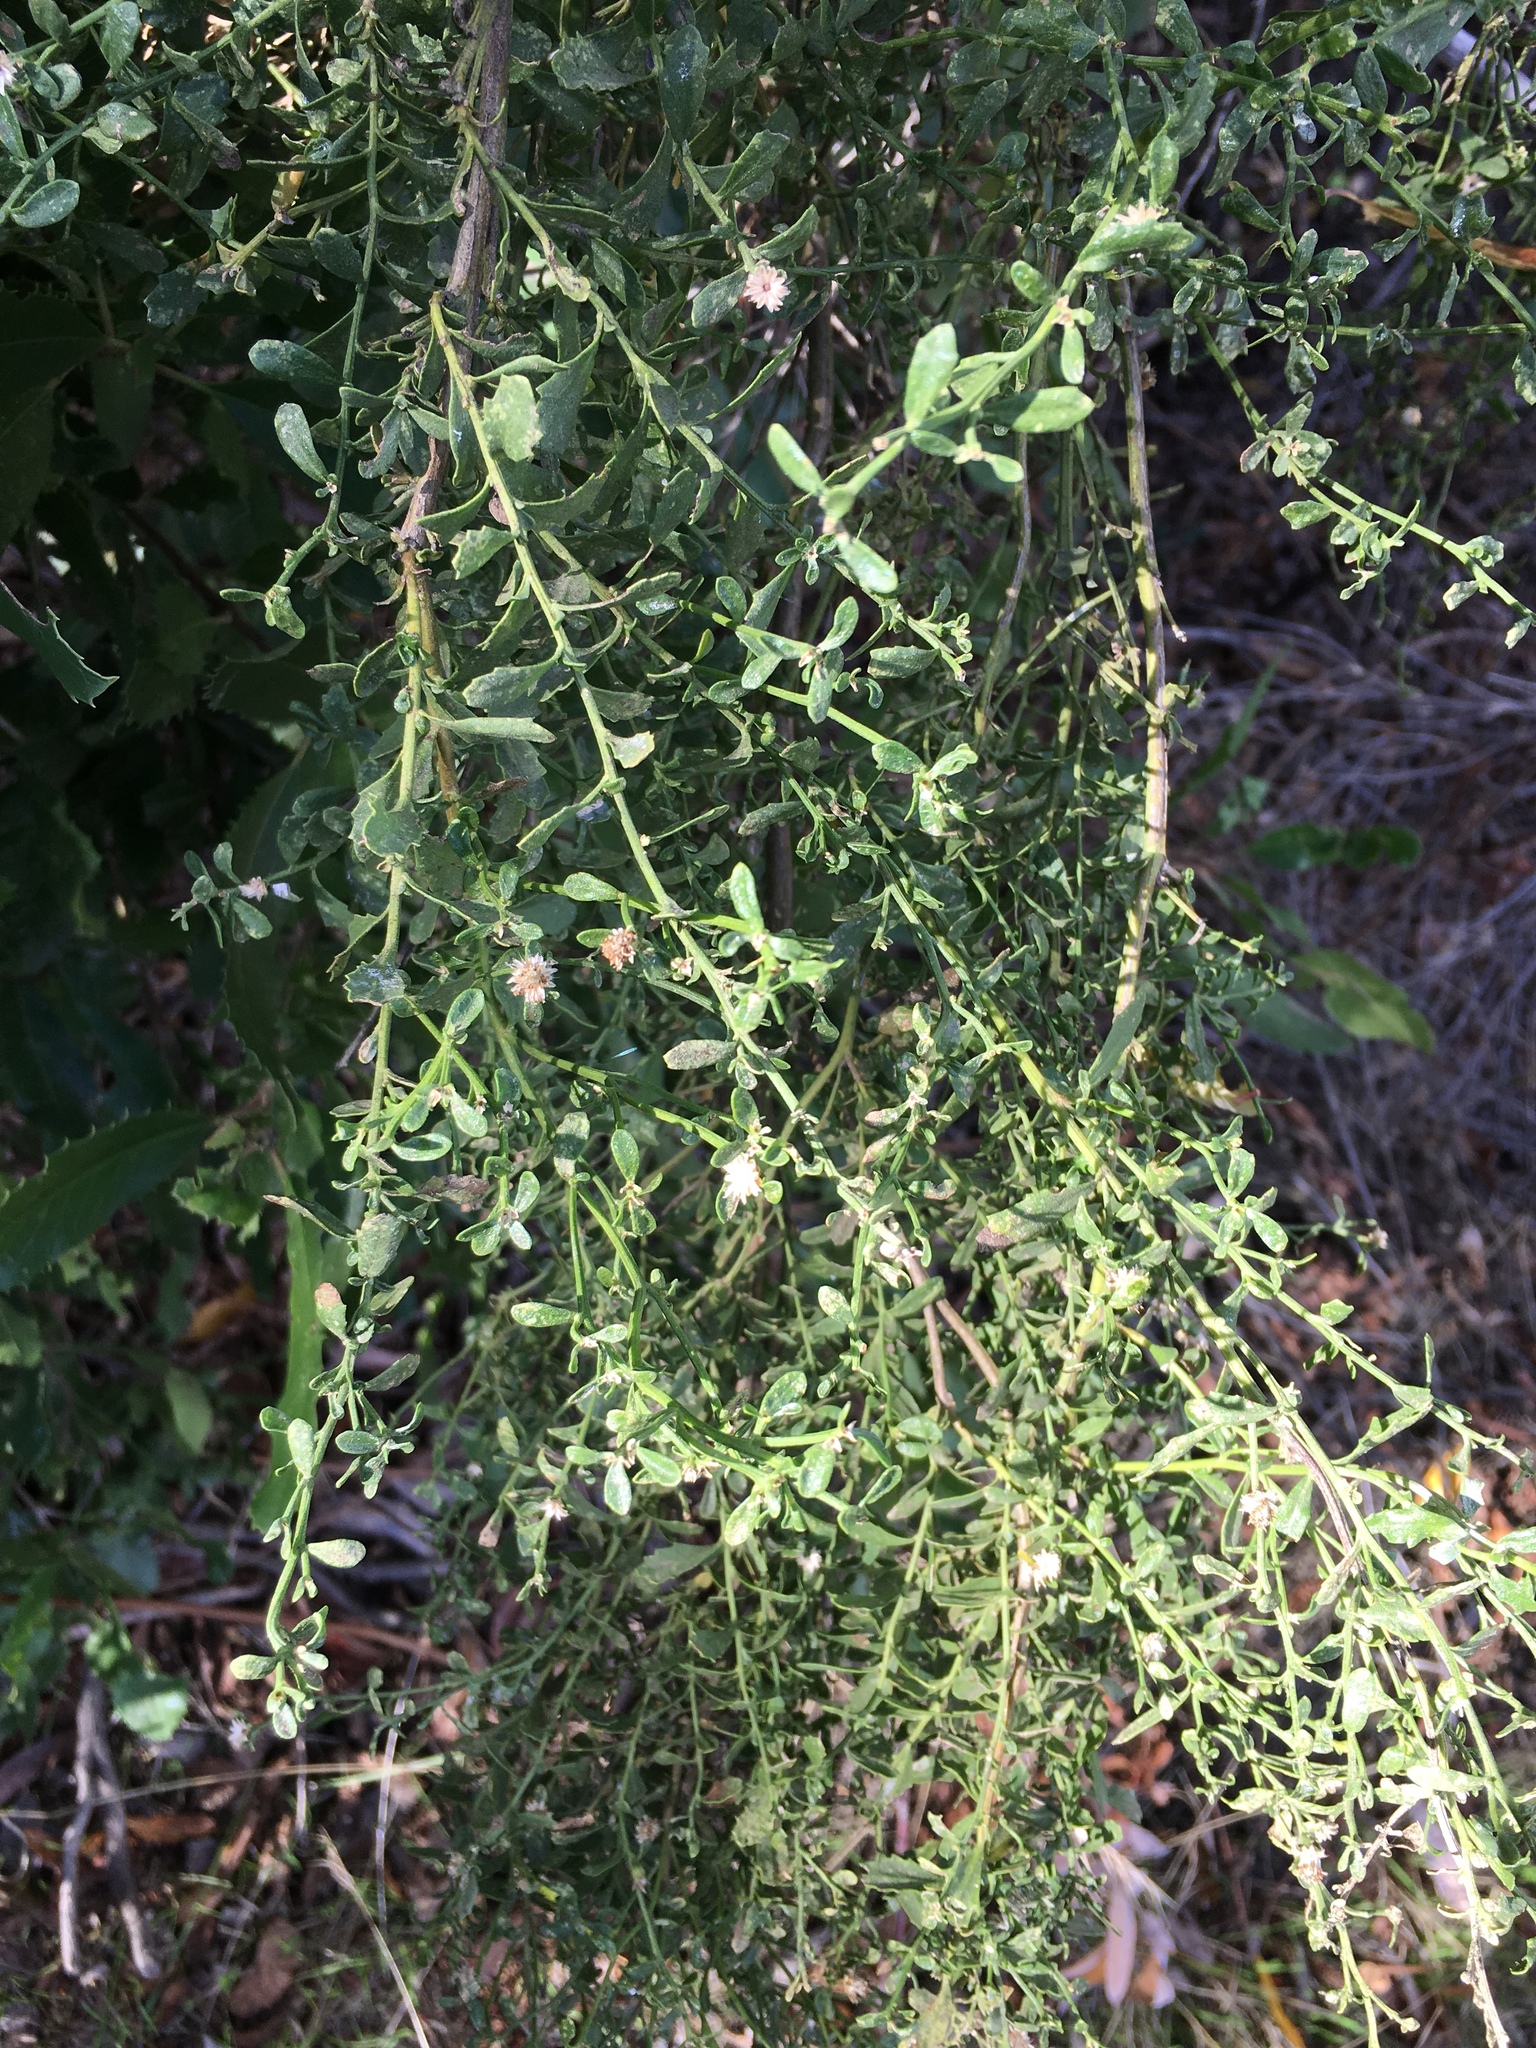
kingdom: Plantae
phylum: Tracheophyta
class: Magnoliopsida
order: Asterales
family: Asteraceae
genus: Baccharis
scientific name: Baccharis pilularis
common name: Coyotebrush
